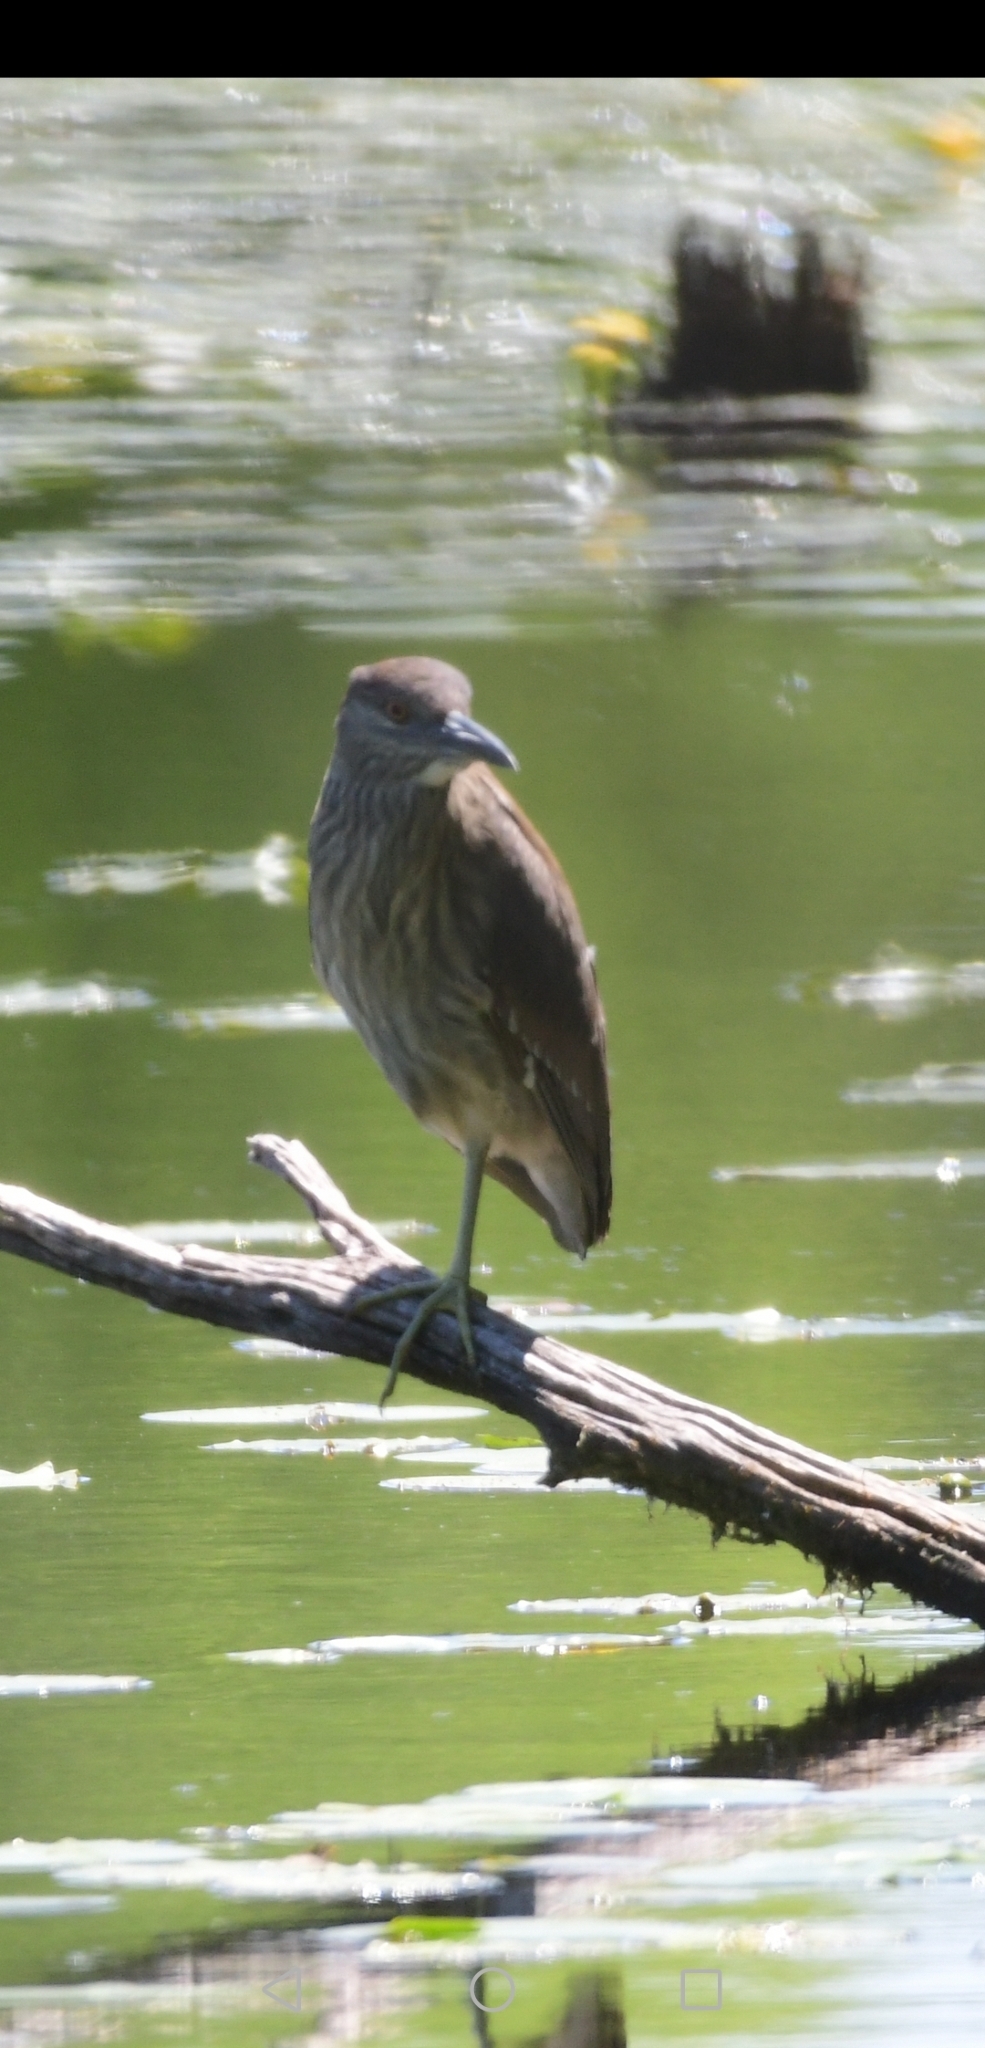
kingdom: Animalia
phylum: Chordata
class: Aves
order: Pelecaniformes
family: Ardeidae
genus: Nycticorax
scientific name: Nycticorax nycticorax
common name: Black-crowned night heron
